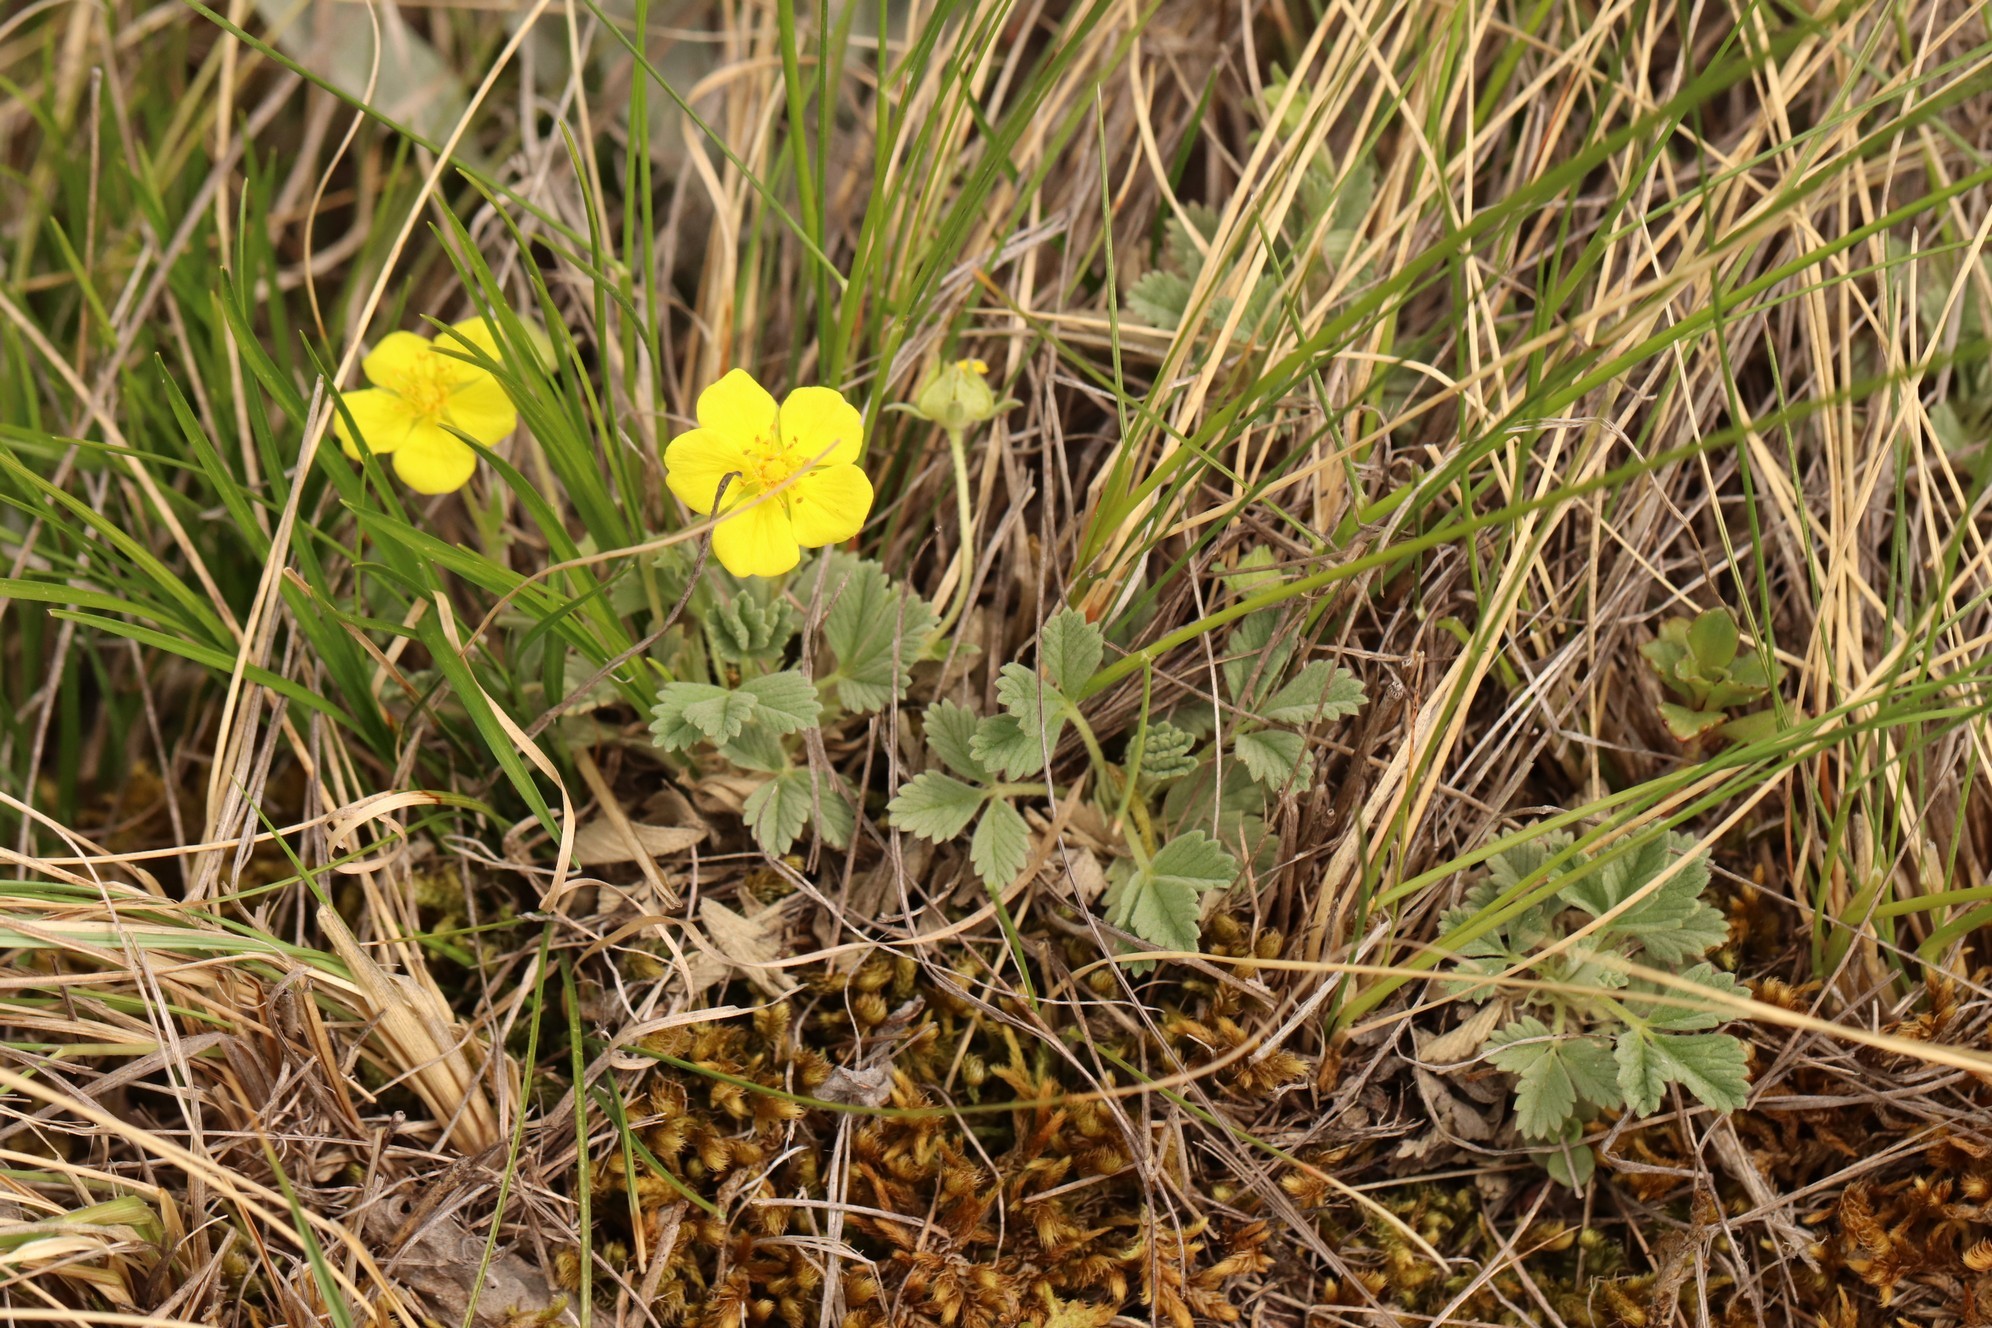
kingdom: Plantae
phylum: Tracheophyta
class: Magnoliopsida
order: Rosales
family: Rosaceae
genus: Potentilla
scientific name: Potentilla acaulis
